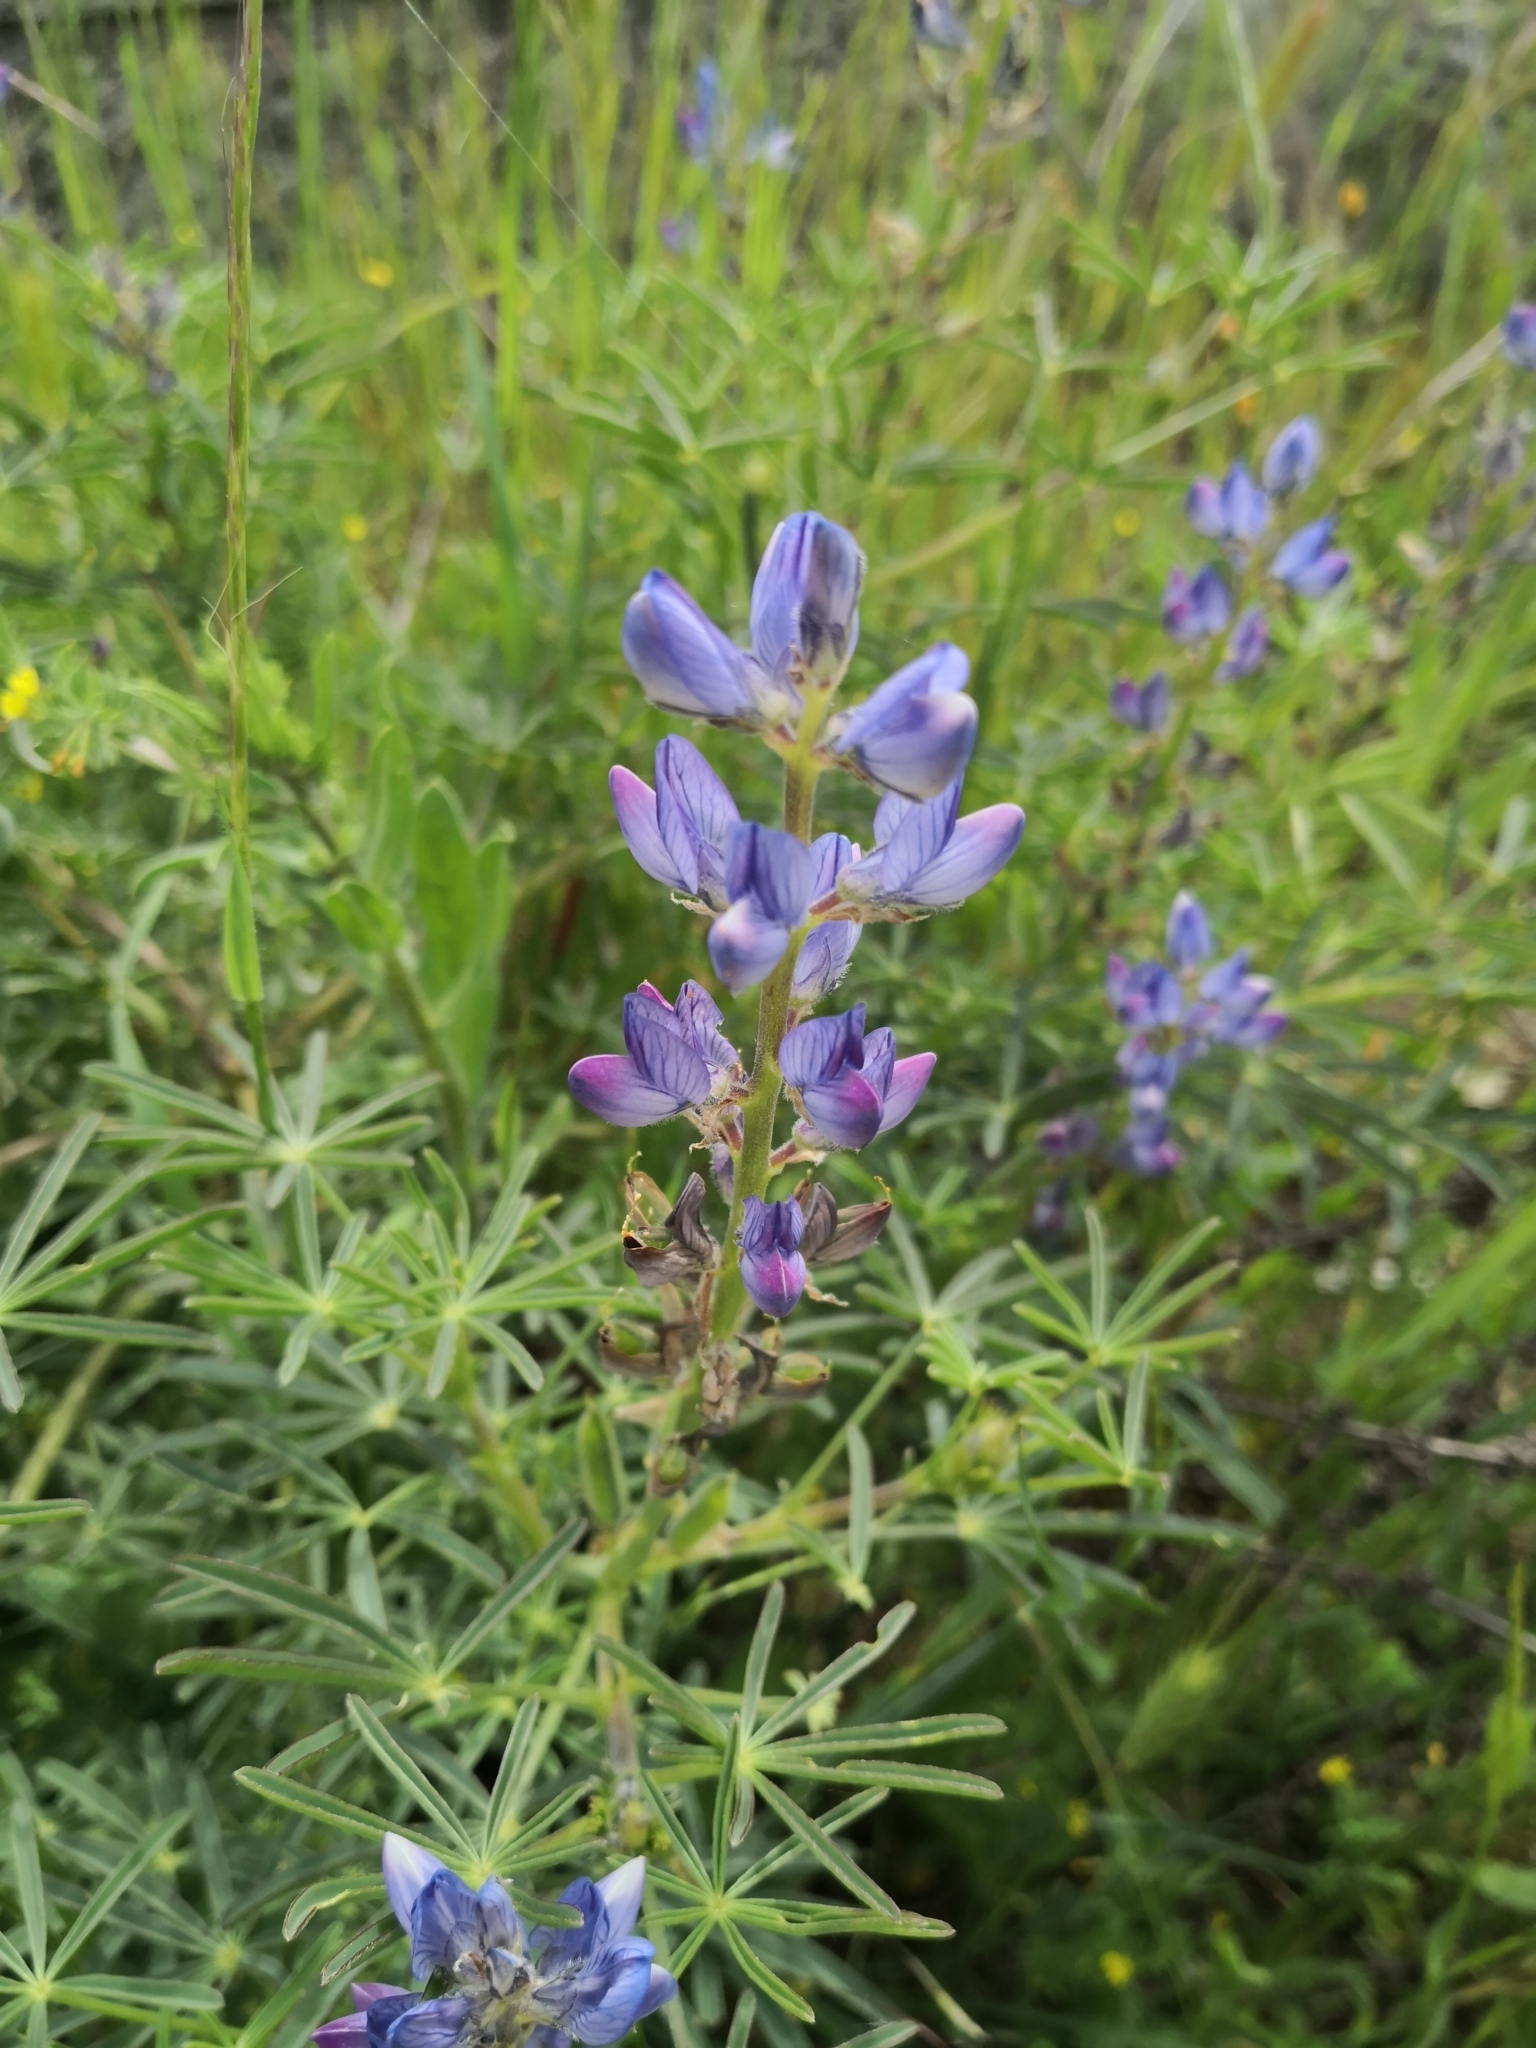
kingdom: Plantae
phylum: Tracheophyta
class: Magnoliopsida
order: Fabales
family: Fabaceae
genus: Lupinus
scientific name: Lupinus angustifolius
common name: Narrow-leaved lupin
